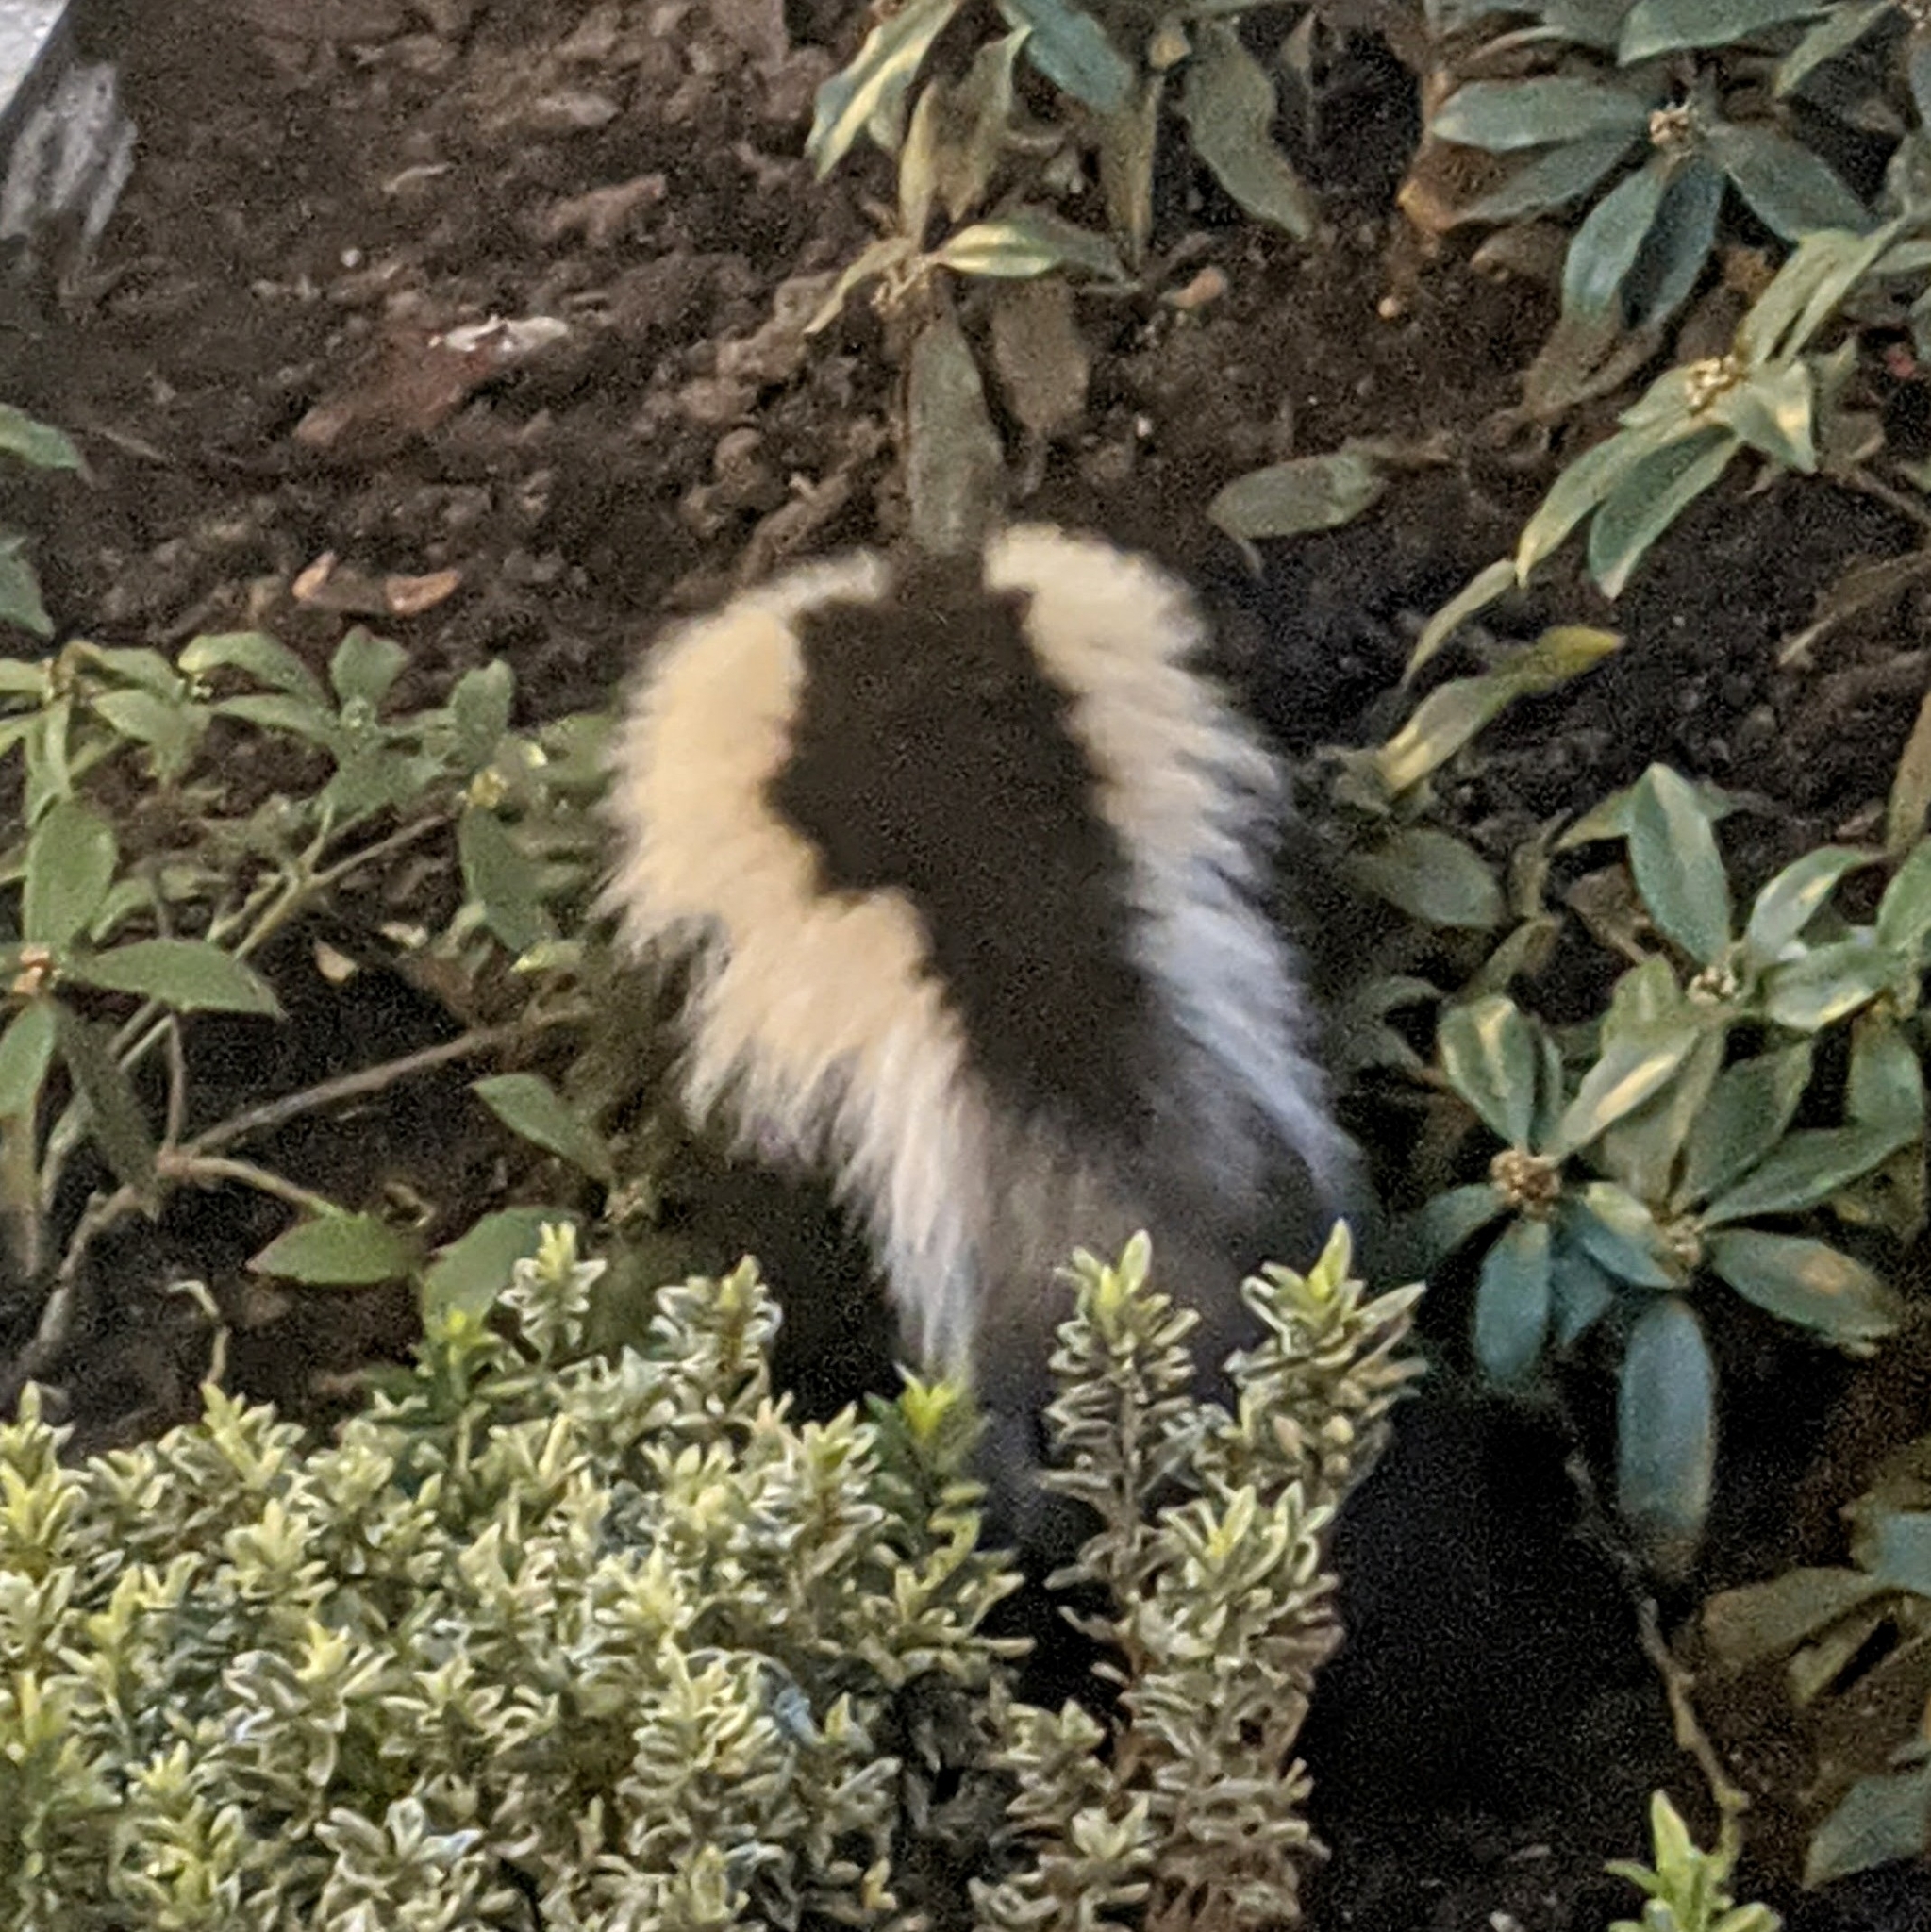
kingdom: Animalia
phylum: Chordata
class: Mammalia
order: Carnivora
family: Mephitidae
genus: Mephitis
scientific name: Mephitis mephitis
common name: Striped skunk
